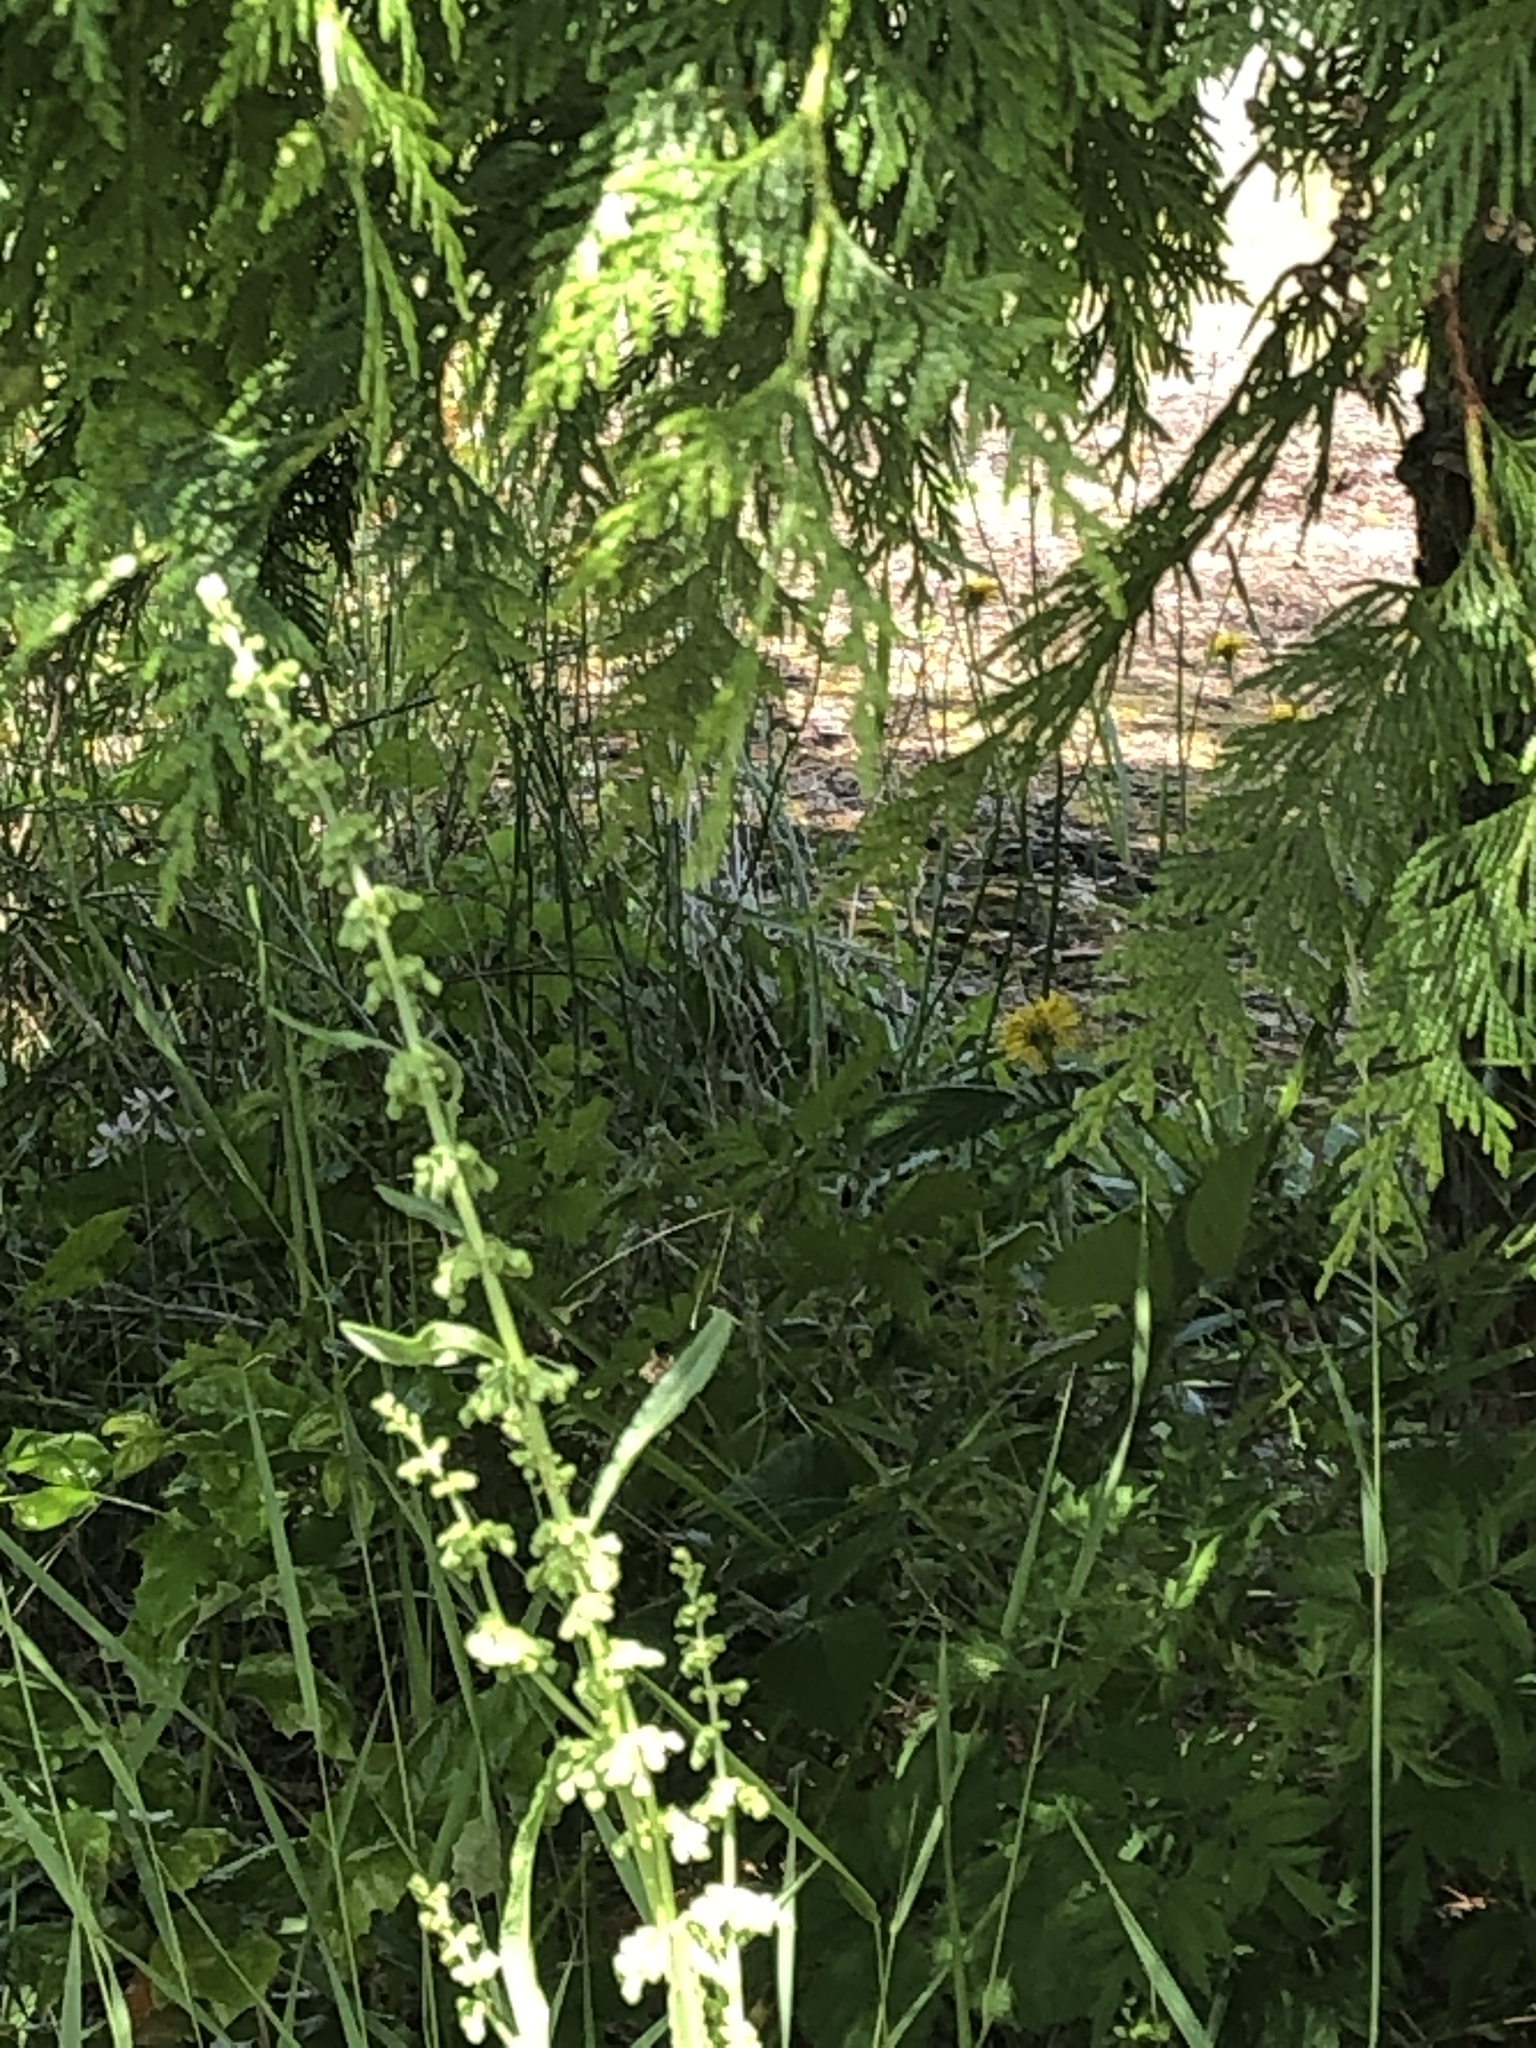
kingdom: Plantae
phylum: Tracheophyta
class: Magnoliopsida
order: Caryophyllales
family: Polygonaceae
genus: Rumex
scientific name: Rumex crispus
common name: Curled dock
